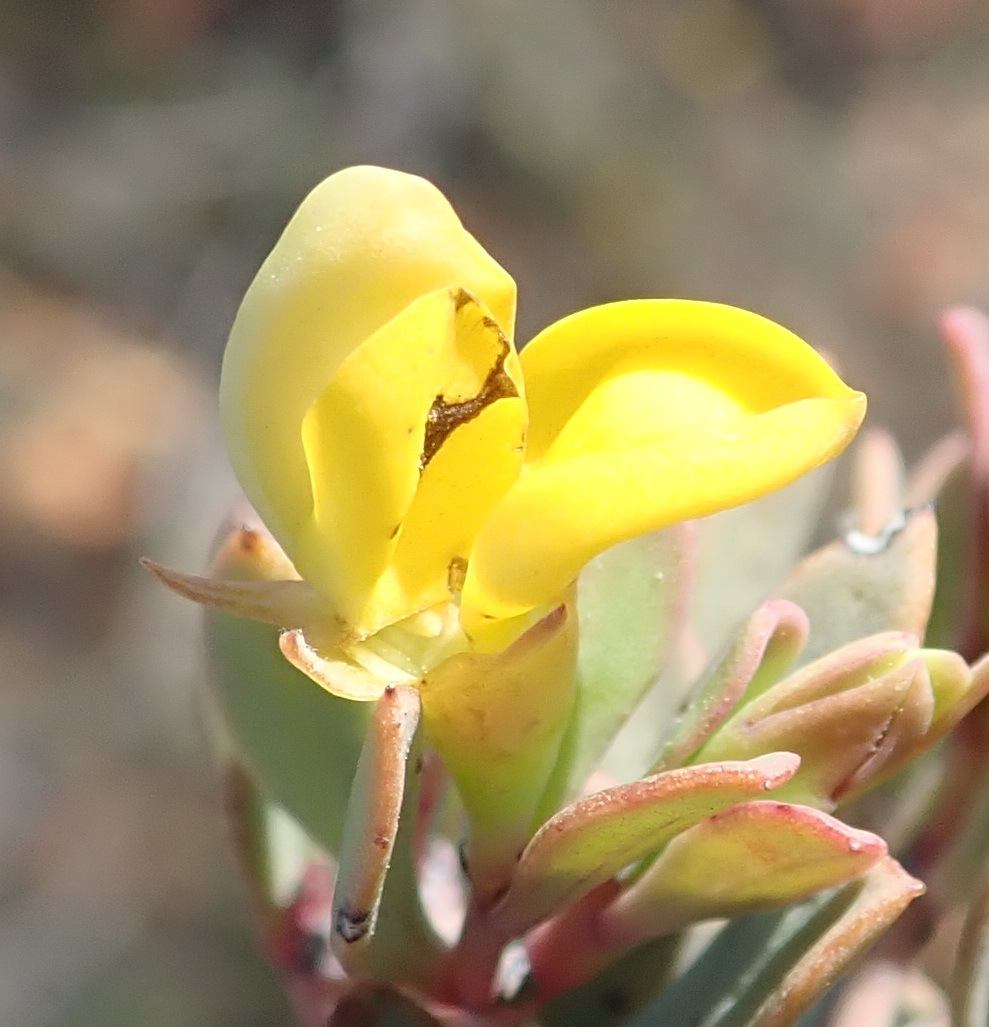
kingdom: Plantae
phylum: Tracheophyta
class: Magnoliopsida
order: Fabales
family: Fabaceae
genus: Rafnia
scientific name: Rafnia capensis
